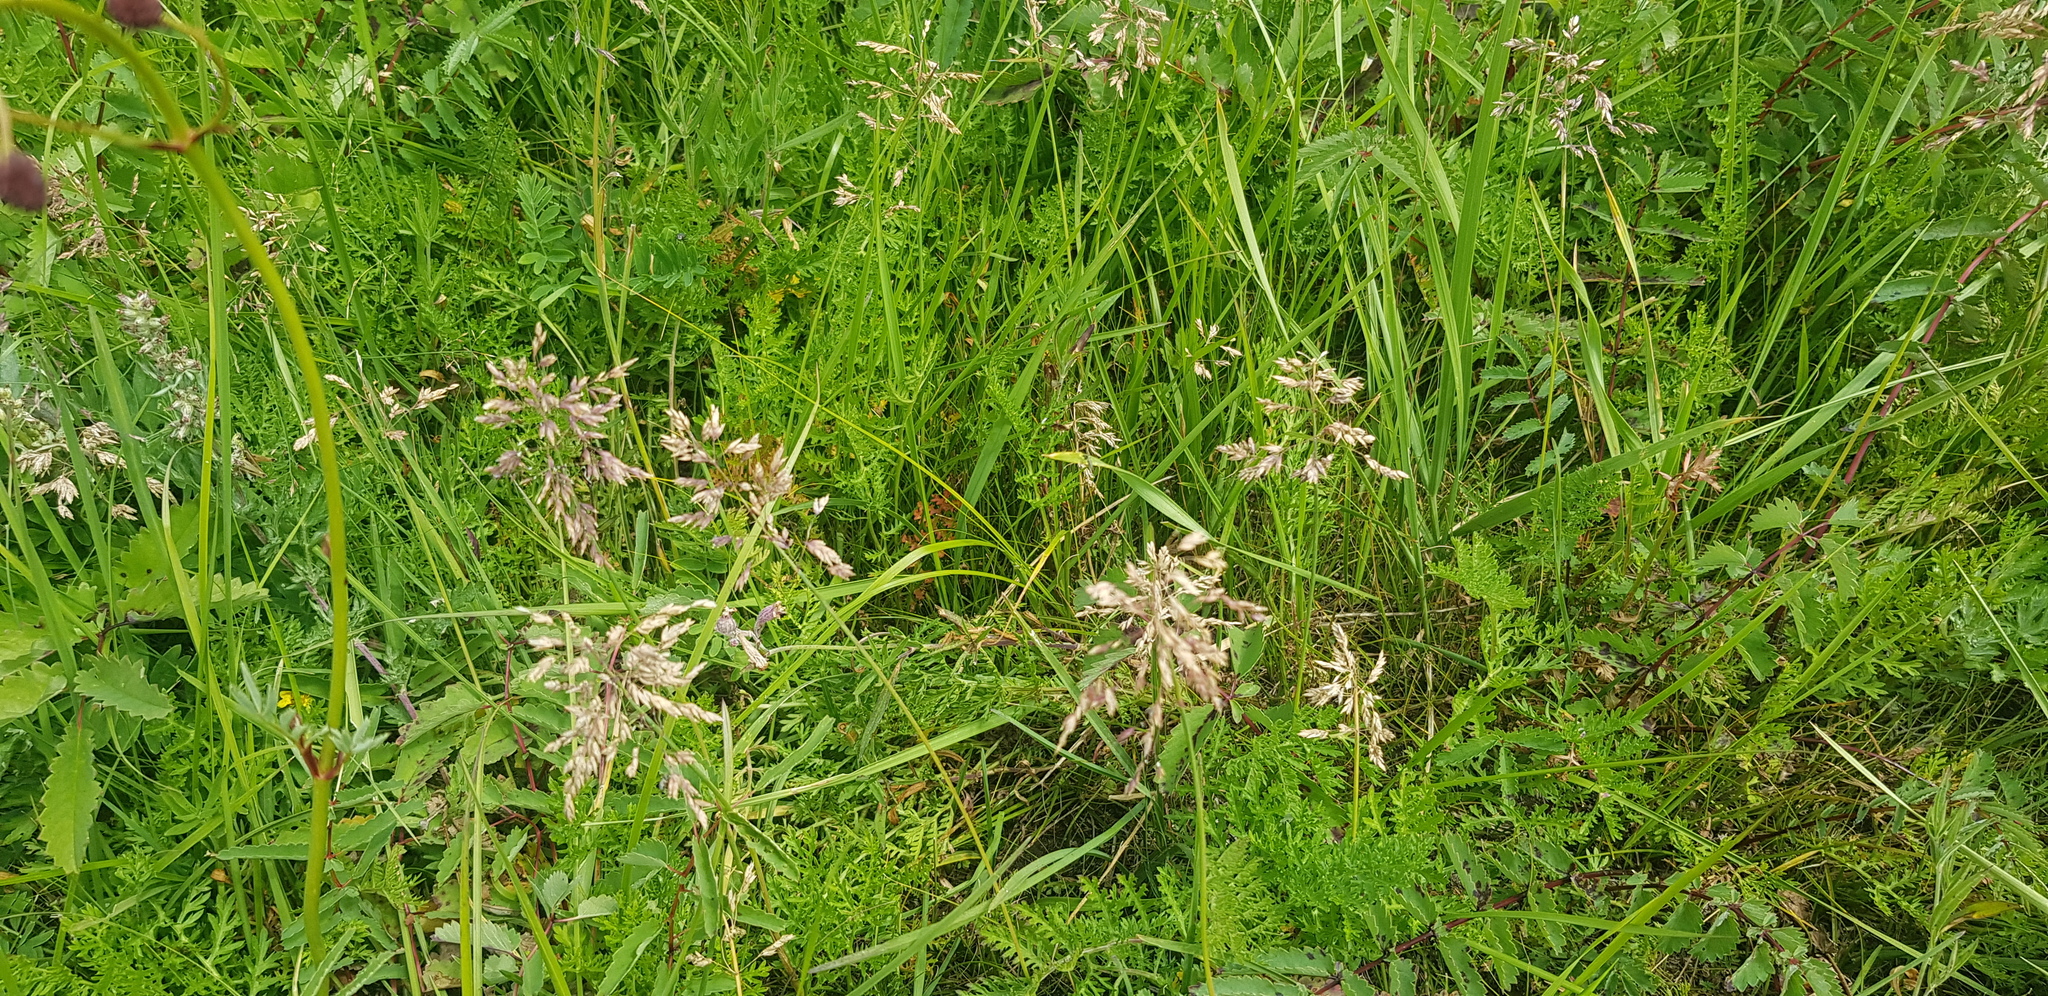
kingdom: Plantae
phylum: Tracheophyta
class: Liliopsida
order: Poales
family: Poaceae
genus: Poa
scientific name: Poa pratensis
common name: Kentucky bluegrass
